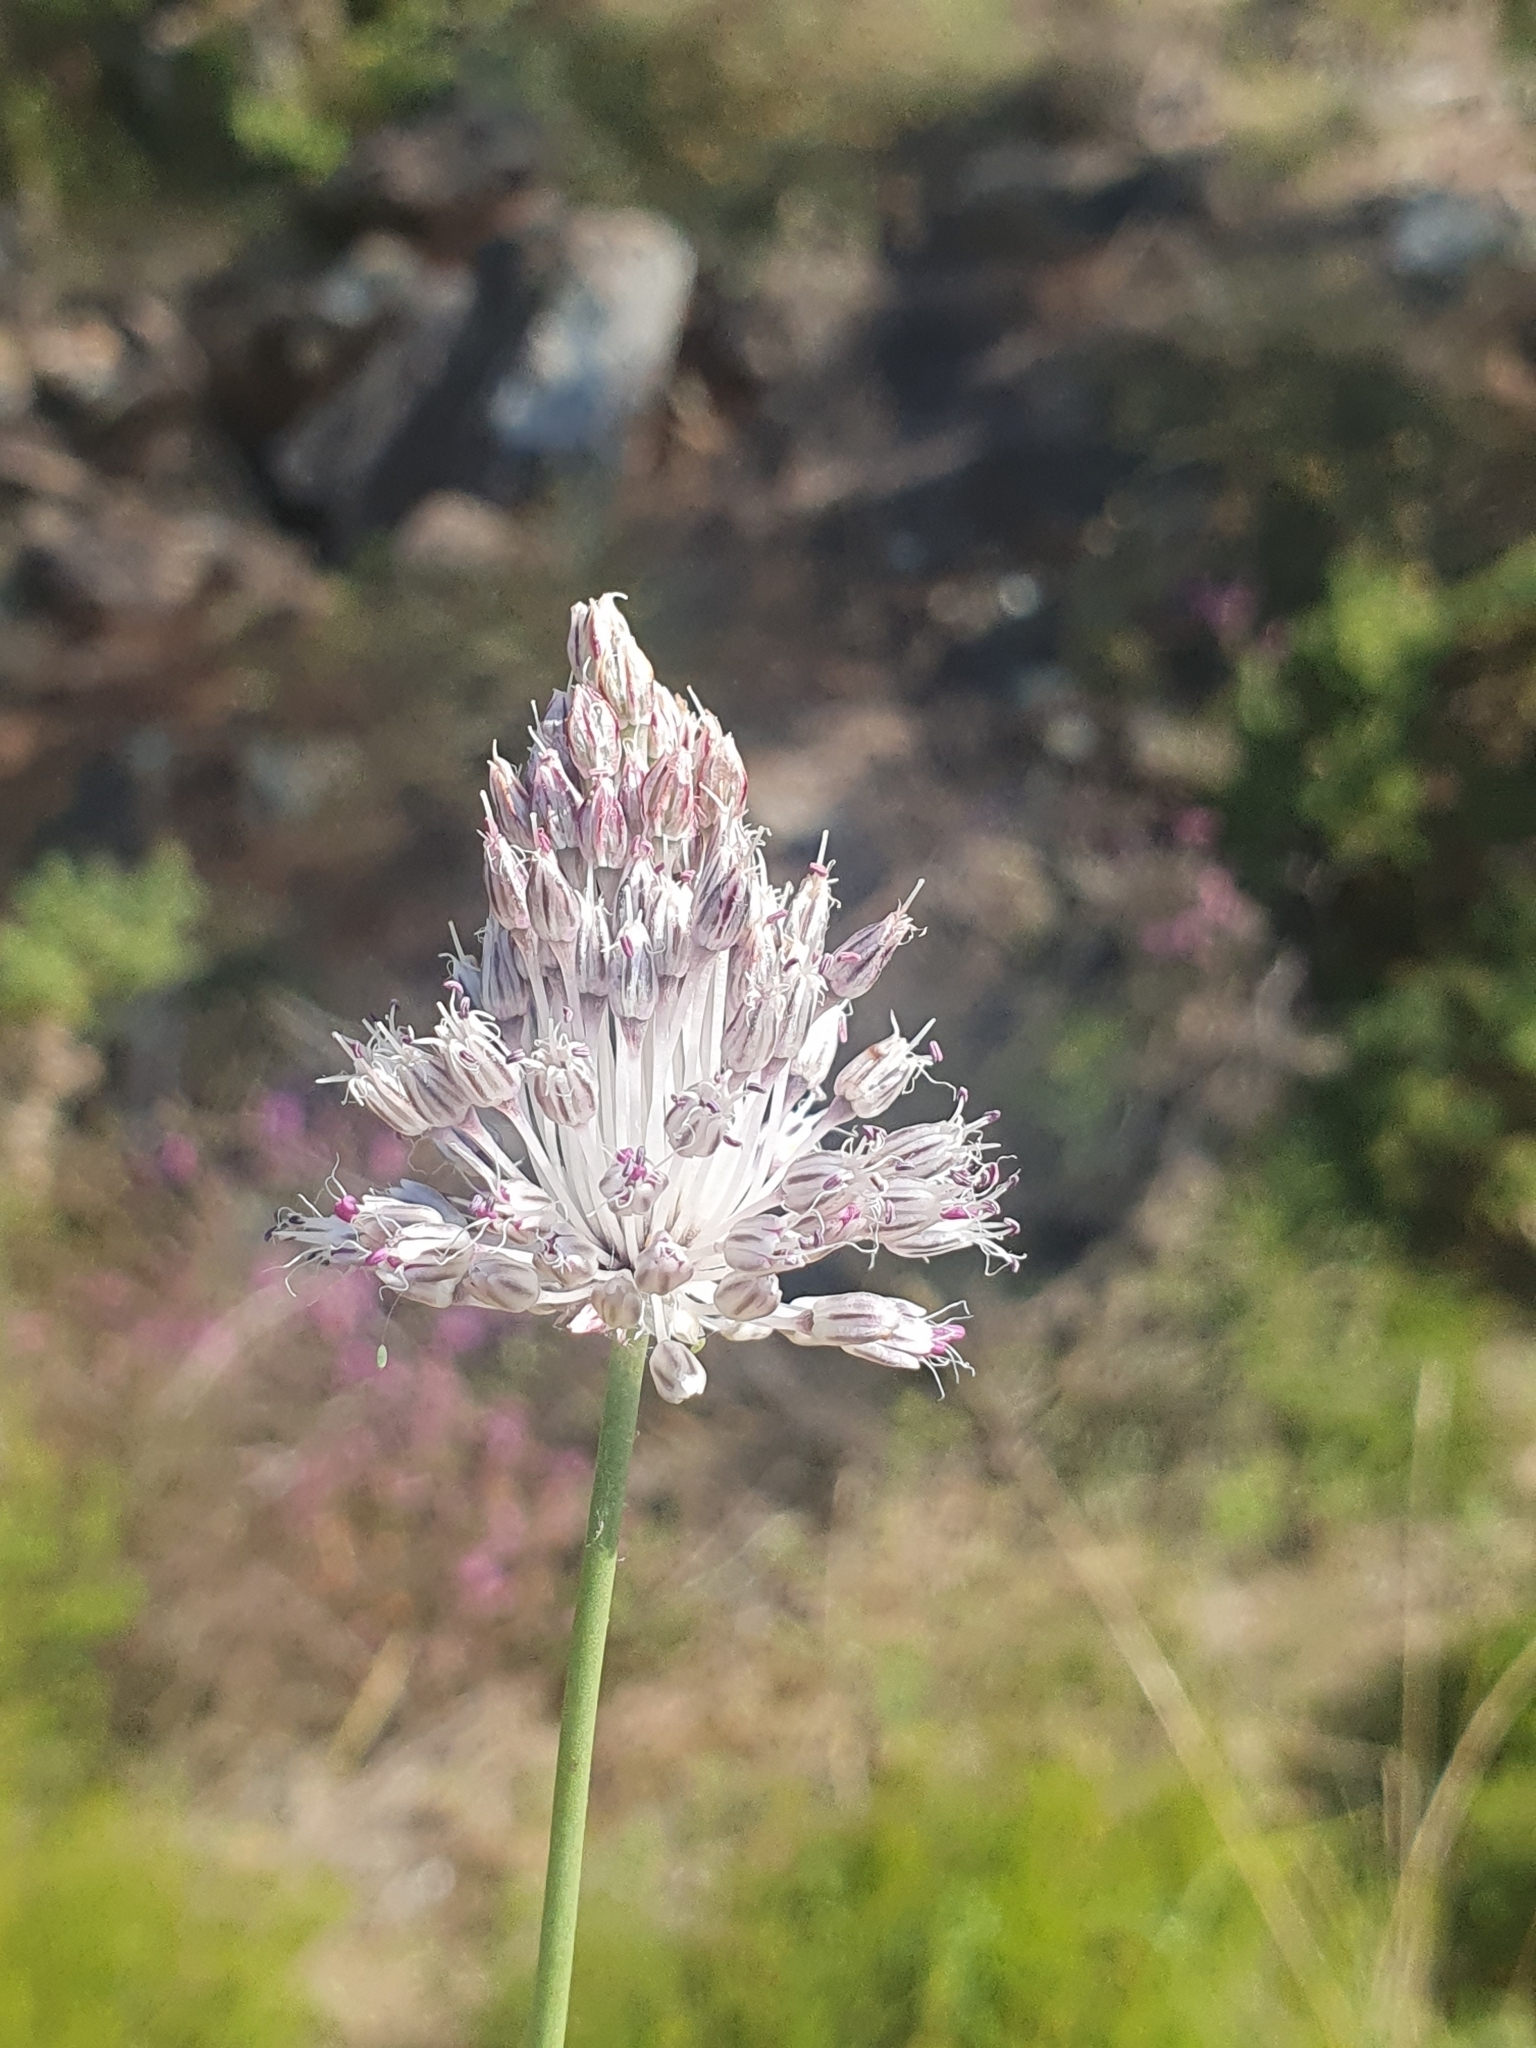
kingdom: Plantae
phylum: Tracheophyta
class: Liliopsida
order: Asparagales
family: Amaryllidaceae
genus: Allium
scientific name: Allium sardoum
